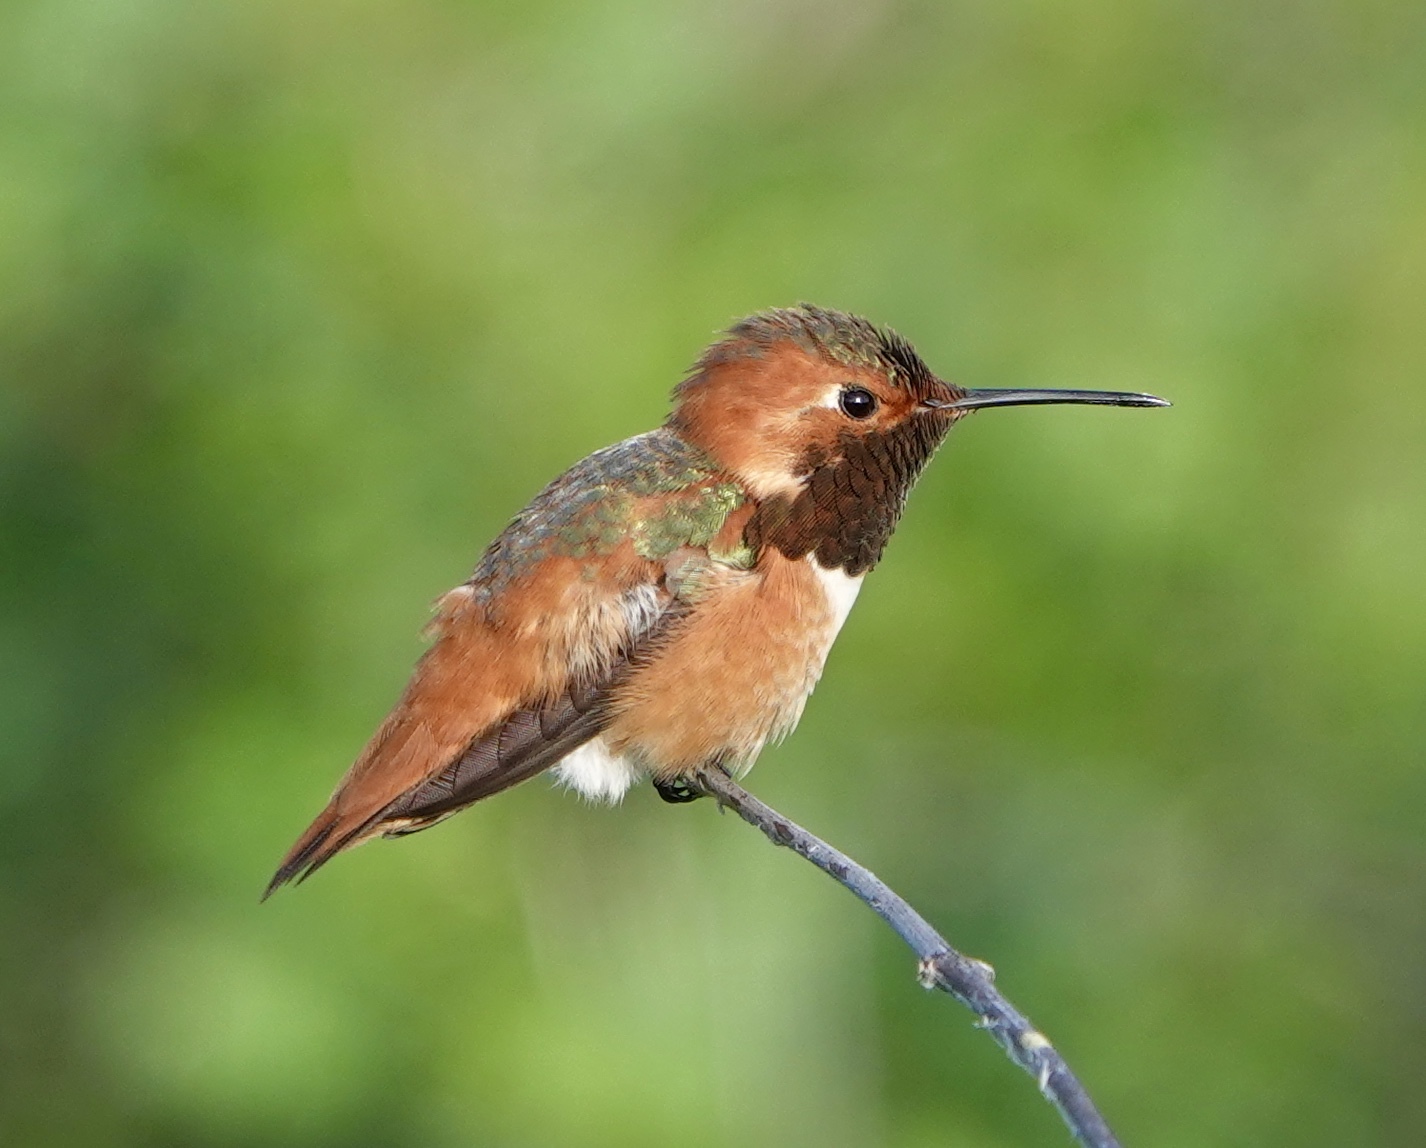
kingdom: Animalia
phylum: Chordata
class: Aves
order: Apodiformes
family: Trochilidae
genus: Selasphorus
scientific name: Selasphorus sasin
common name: Allen's hummingbird
